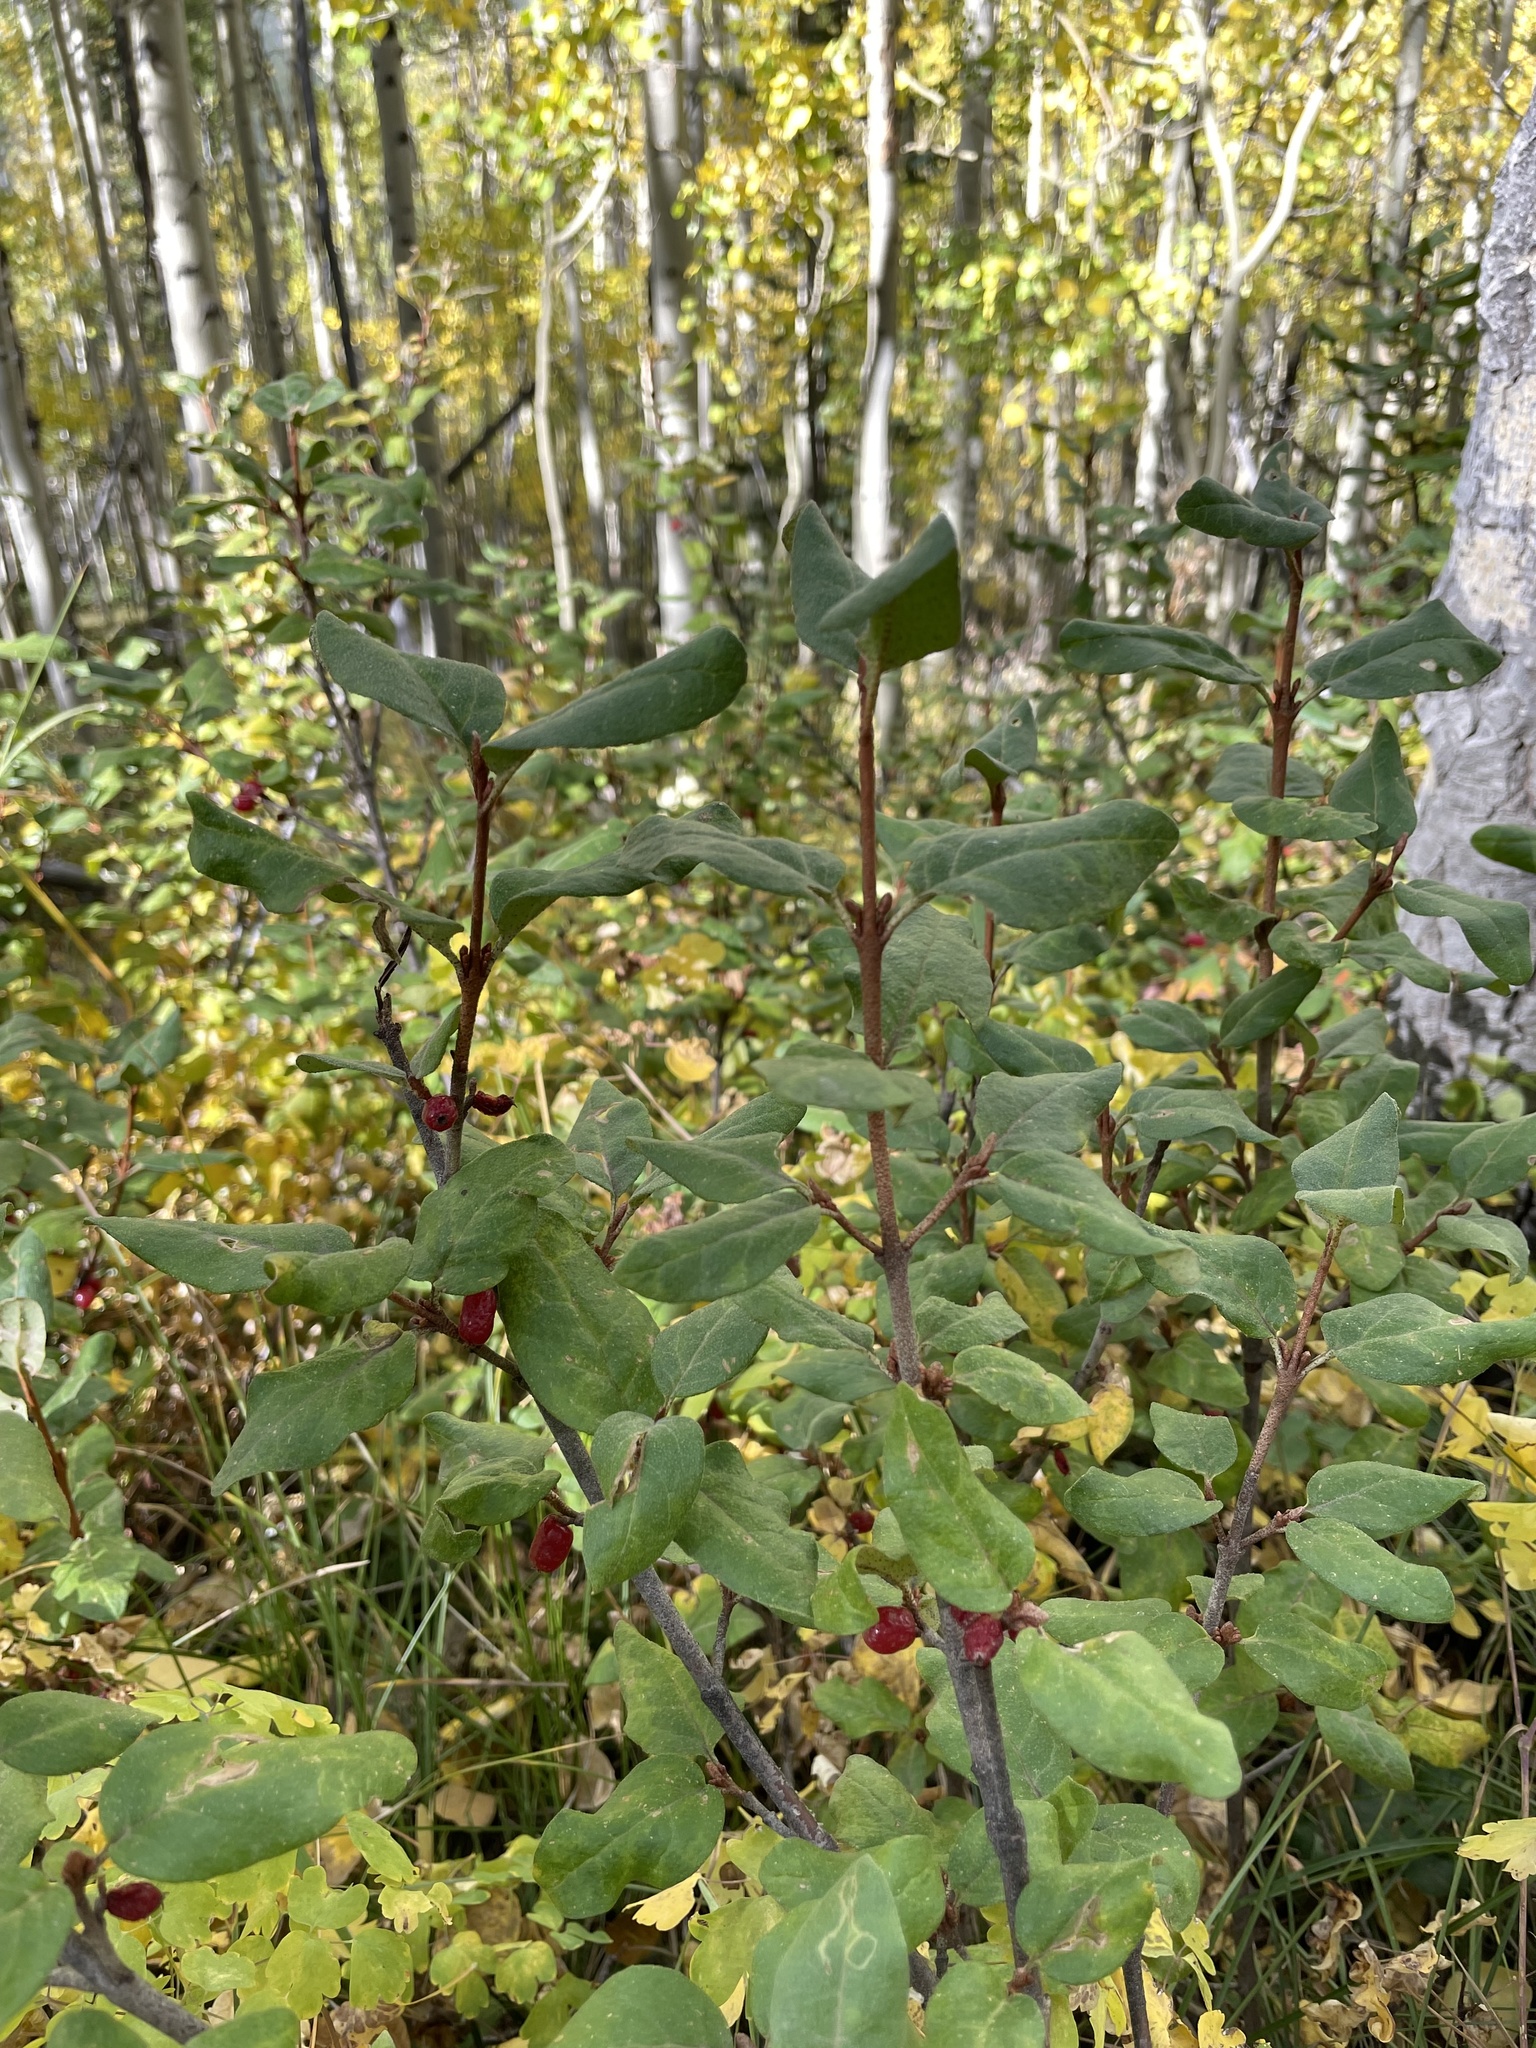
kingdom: Plantae
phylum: Tracheophyta
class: Magnoliopsida
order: Rosales
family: Elaeagnaceae
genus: Shepherdia
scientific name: Shepherdia canadensis
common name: Soapberry
